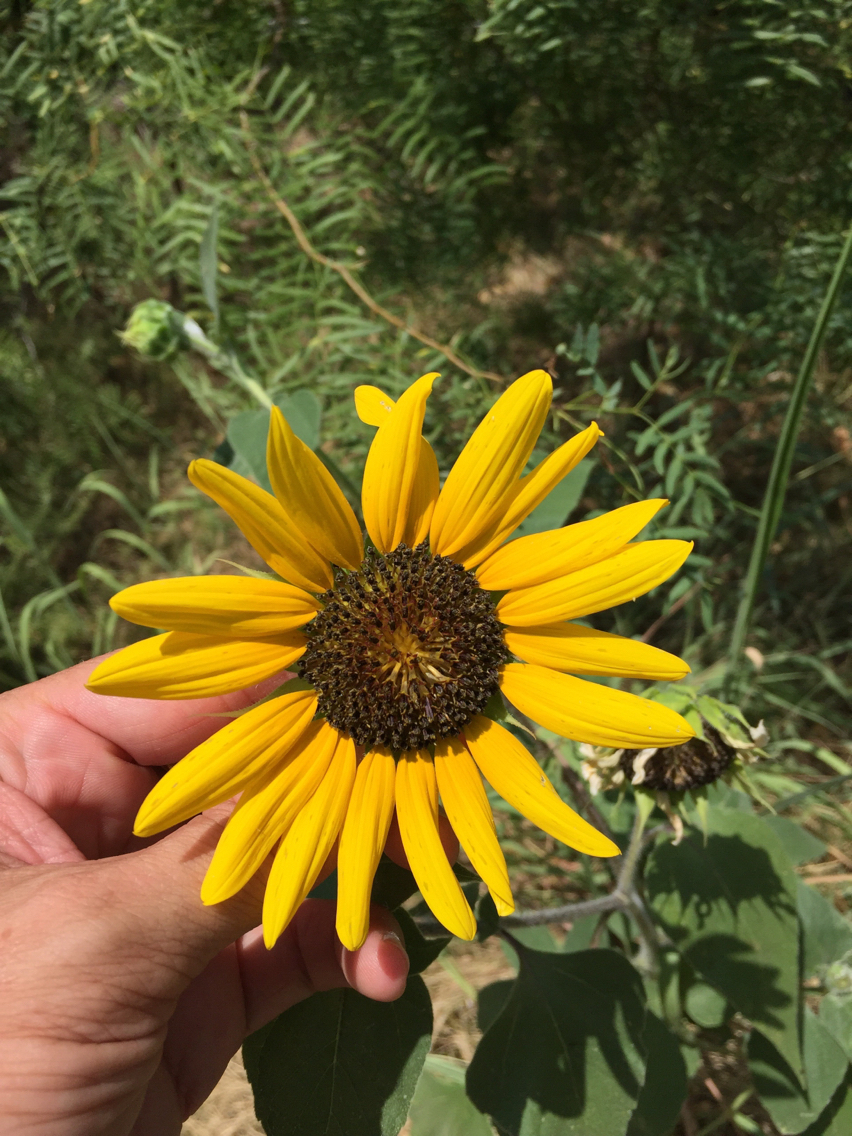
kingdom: Plantae
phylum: Tracheophyta
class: Magnoliopsida
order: Asterales
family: Asteraceae
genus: Helianthus
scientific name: Helianthus annuus
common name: Sunflower
